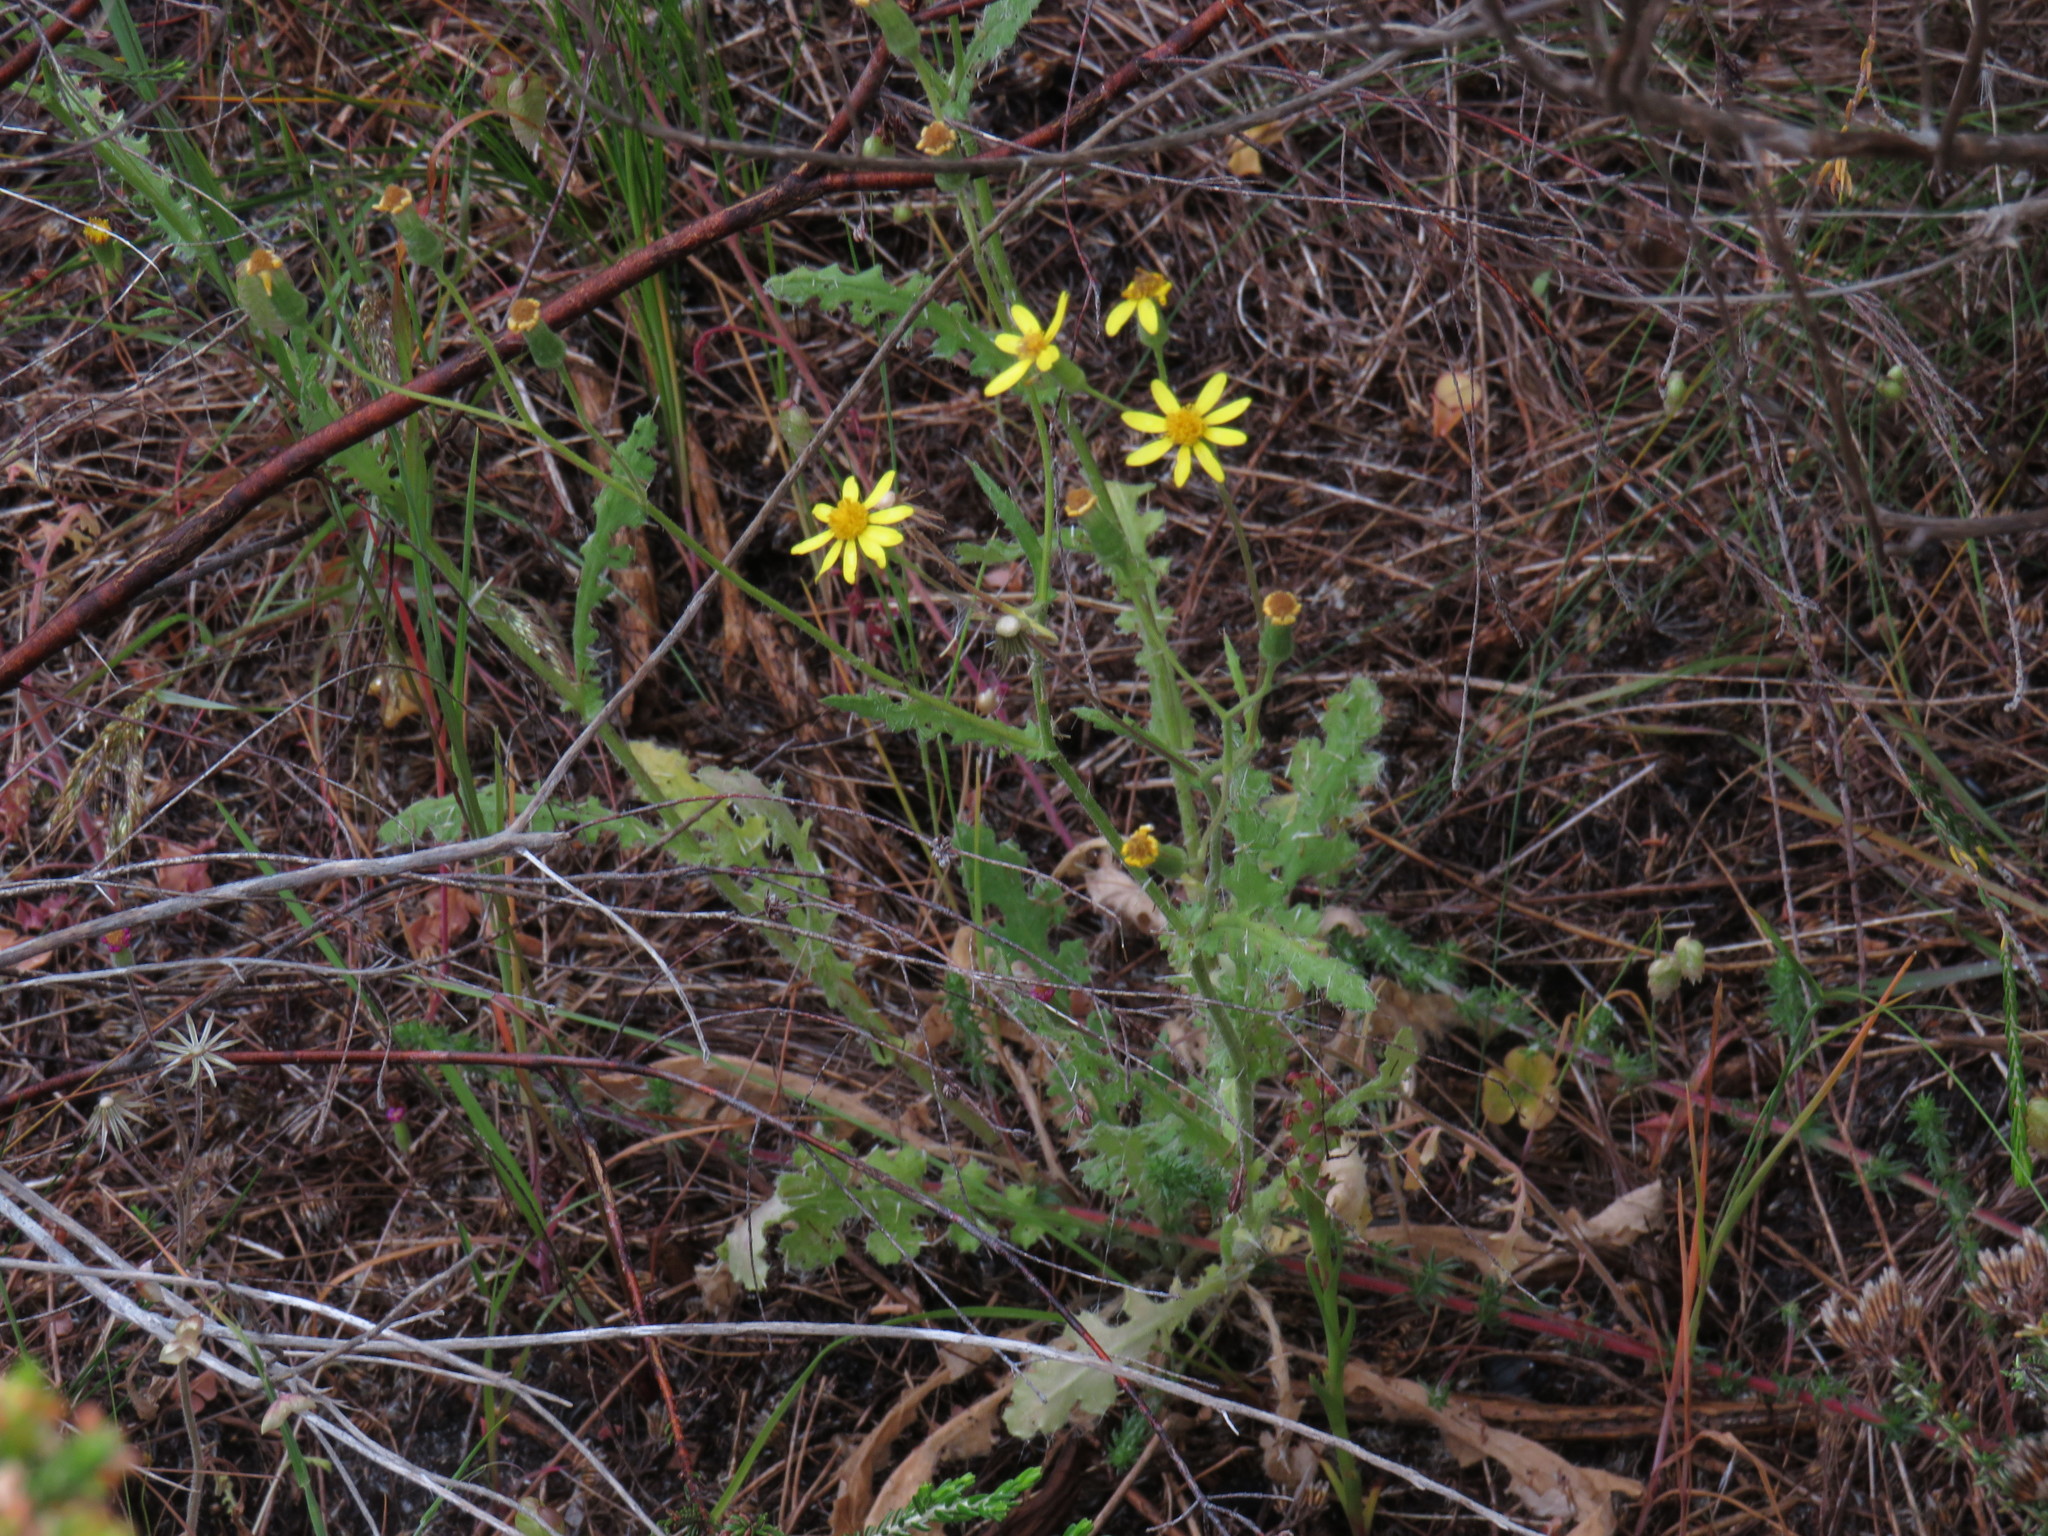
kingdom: Plantae
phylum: Tracheophyta
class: Magnoliopsida
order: Asterales
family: Asteraceae
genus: Senecio
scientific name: Senecio hastatus
